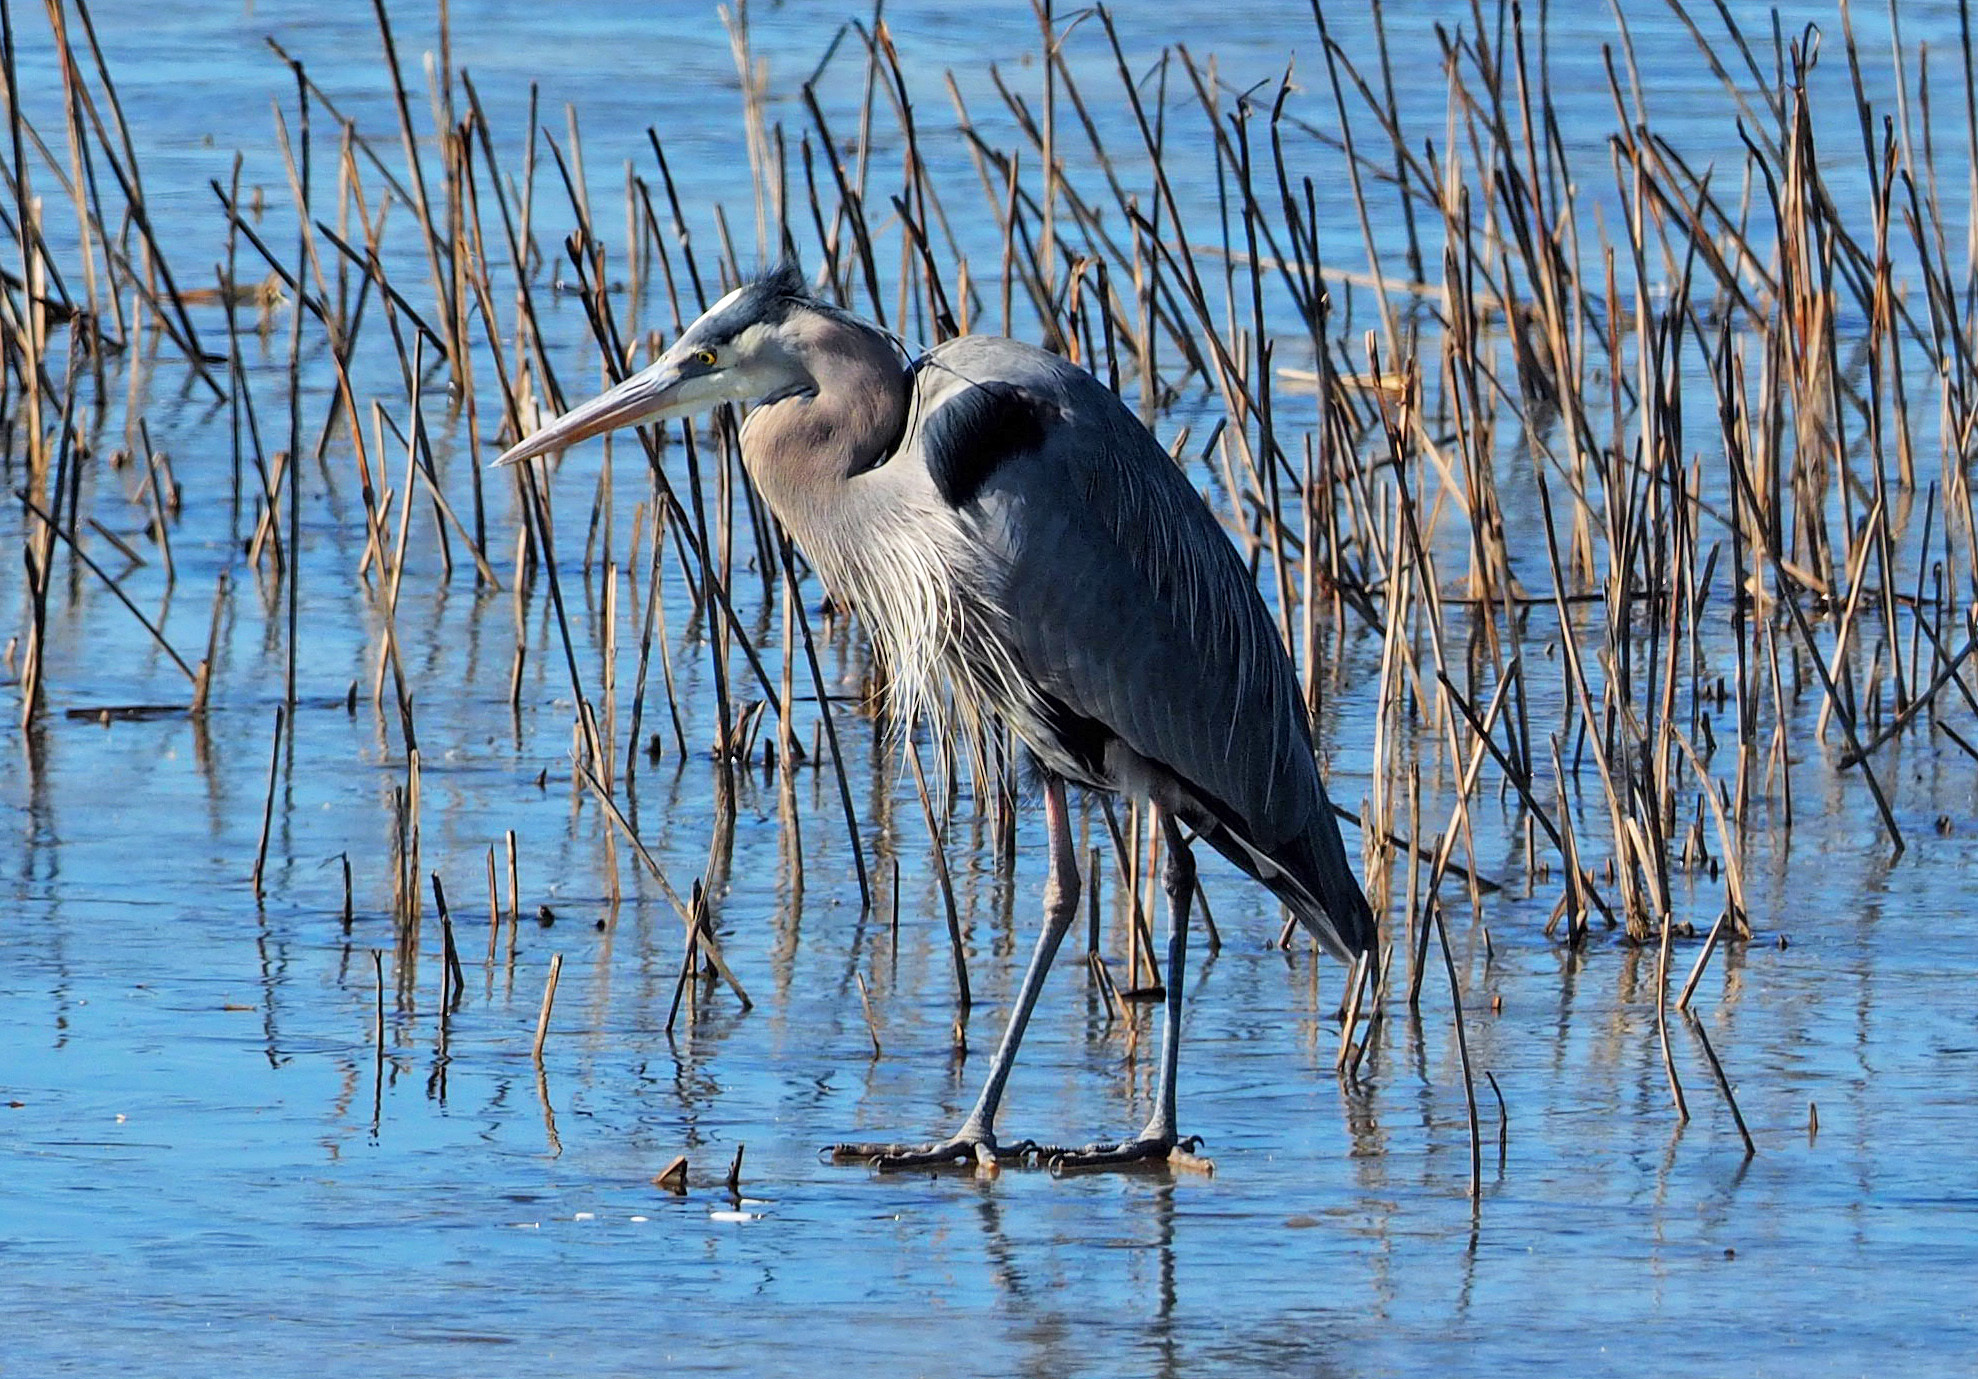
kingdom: Animalia
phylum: Chordata
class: Aves
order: Pelecaniformes
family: Ardeidae
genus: Ardea
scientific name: Ardea herodias
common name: Great blue heron
